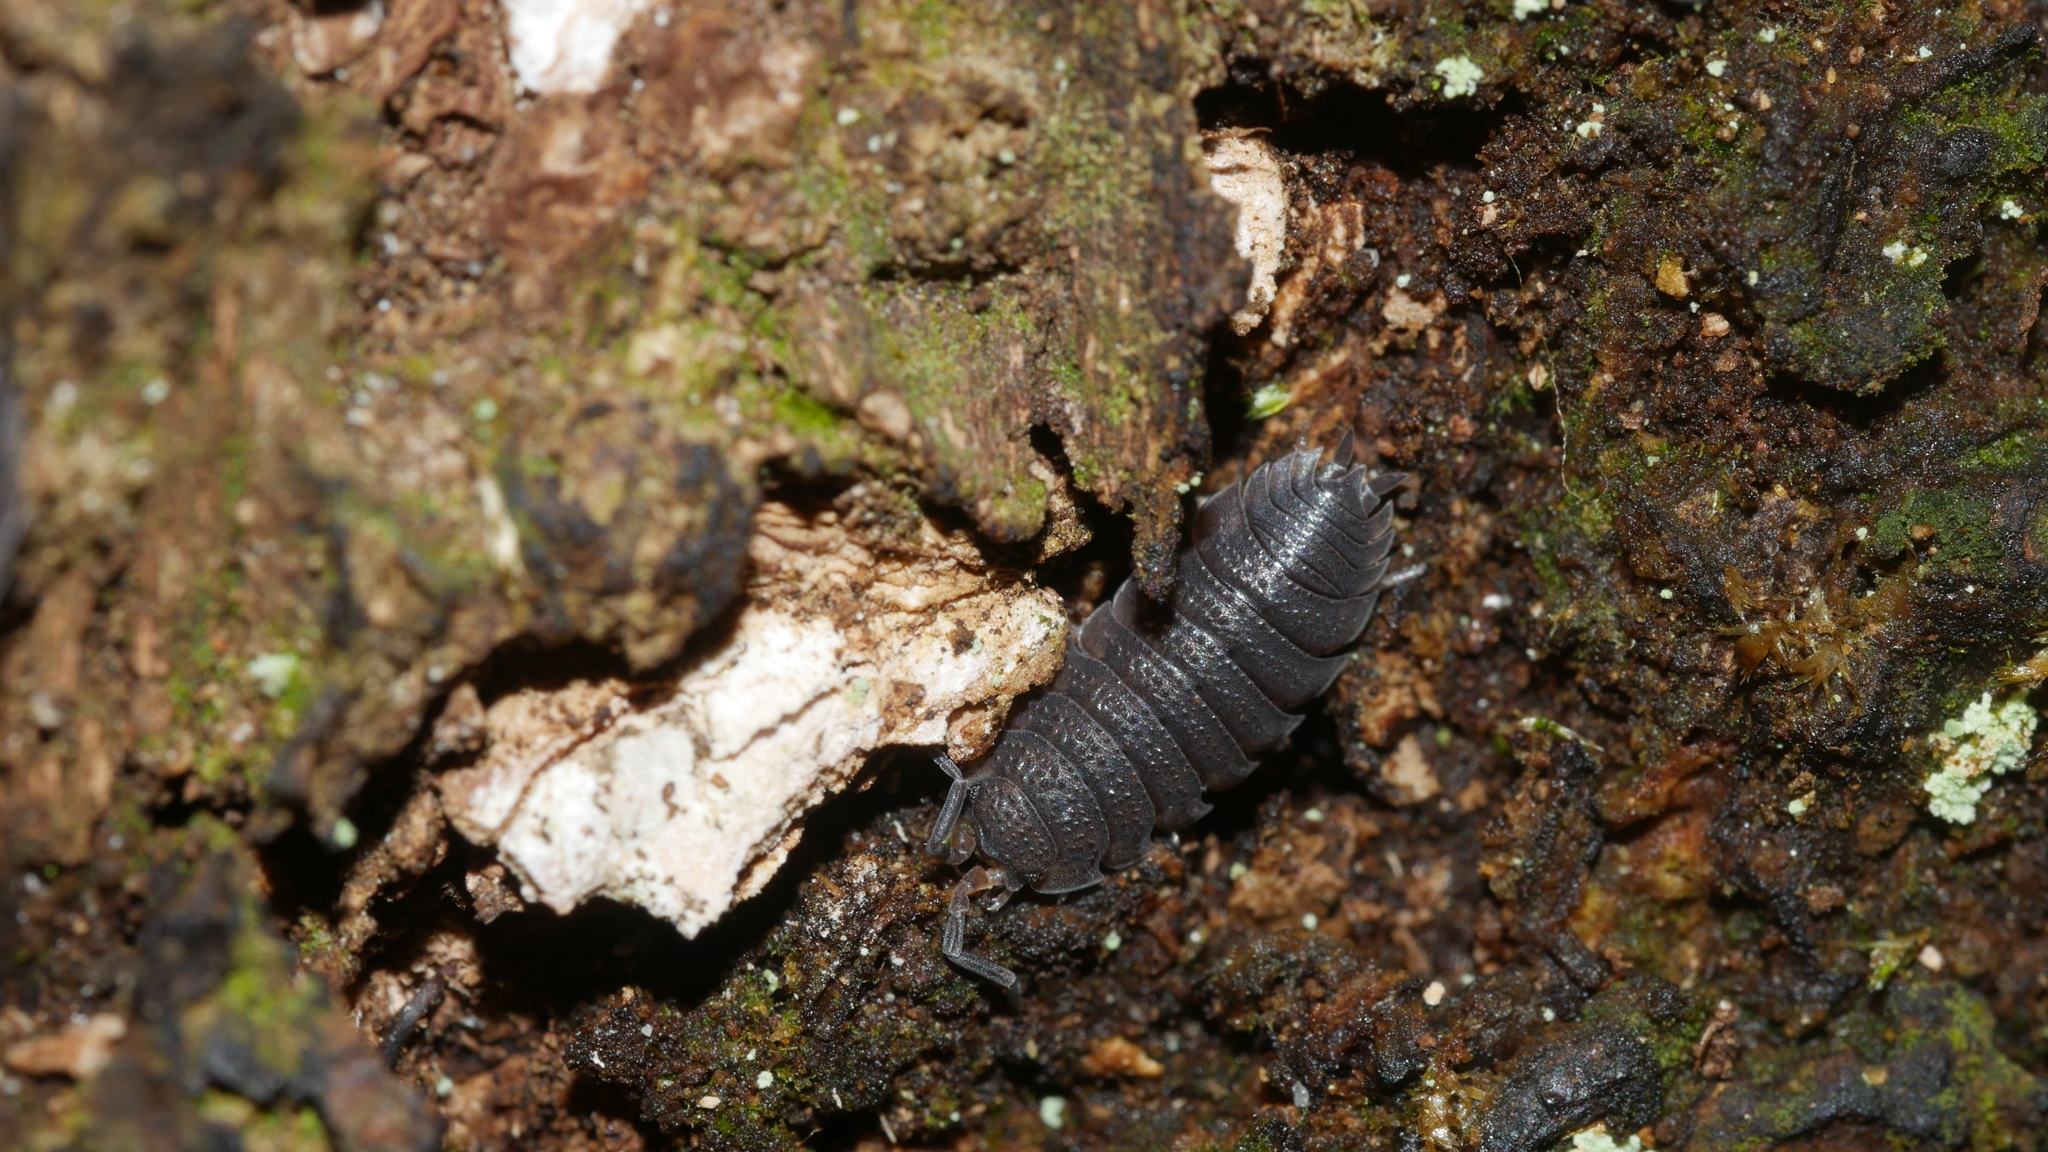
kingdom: Animalia
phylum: Arthropoda
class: Malacostraca
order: Isopoda
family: Porcellionidae
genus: Porcellio
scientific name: Porcellio scaber
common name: Common rough woodlouse
